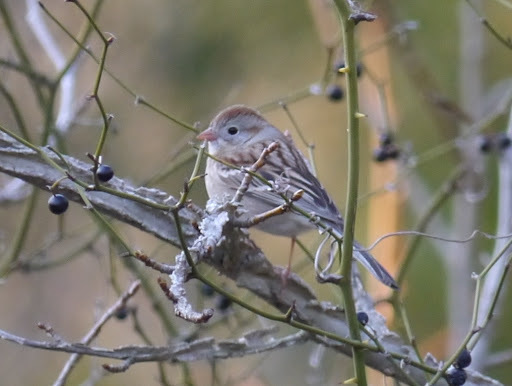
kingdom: Animalia
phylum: Chordata
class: Aves
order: Passeriformes
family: Passerellidae
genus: Spizella
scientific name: Spizella pusilla
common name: Field sparrow
